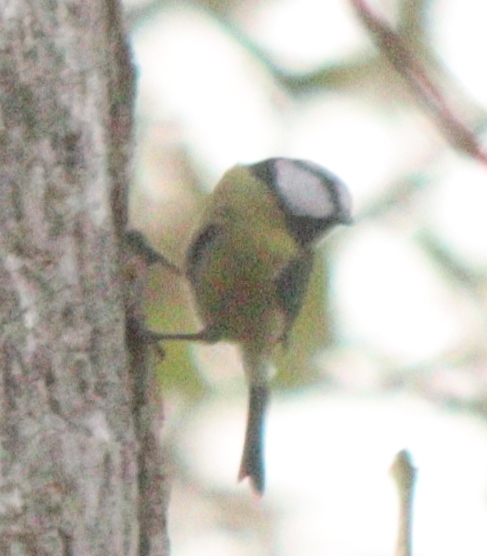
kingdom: Animalia
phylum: Chordata
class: Aves
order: Passeriformes
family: Paridae
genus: Cyanistes
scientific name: Cyanistes caeruleus
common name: Eurasian blue tit
